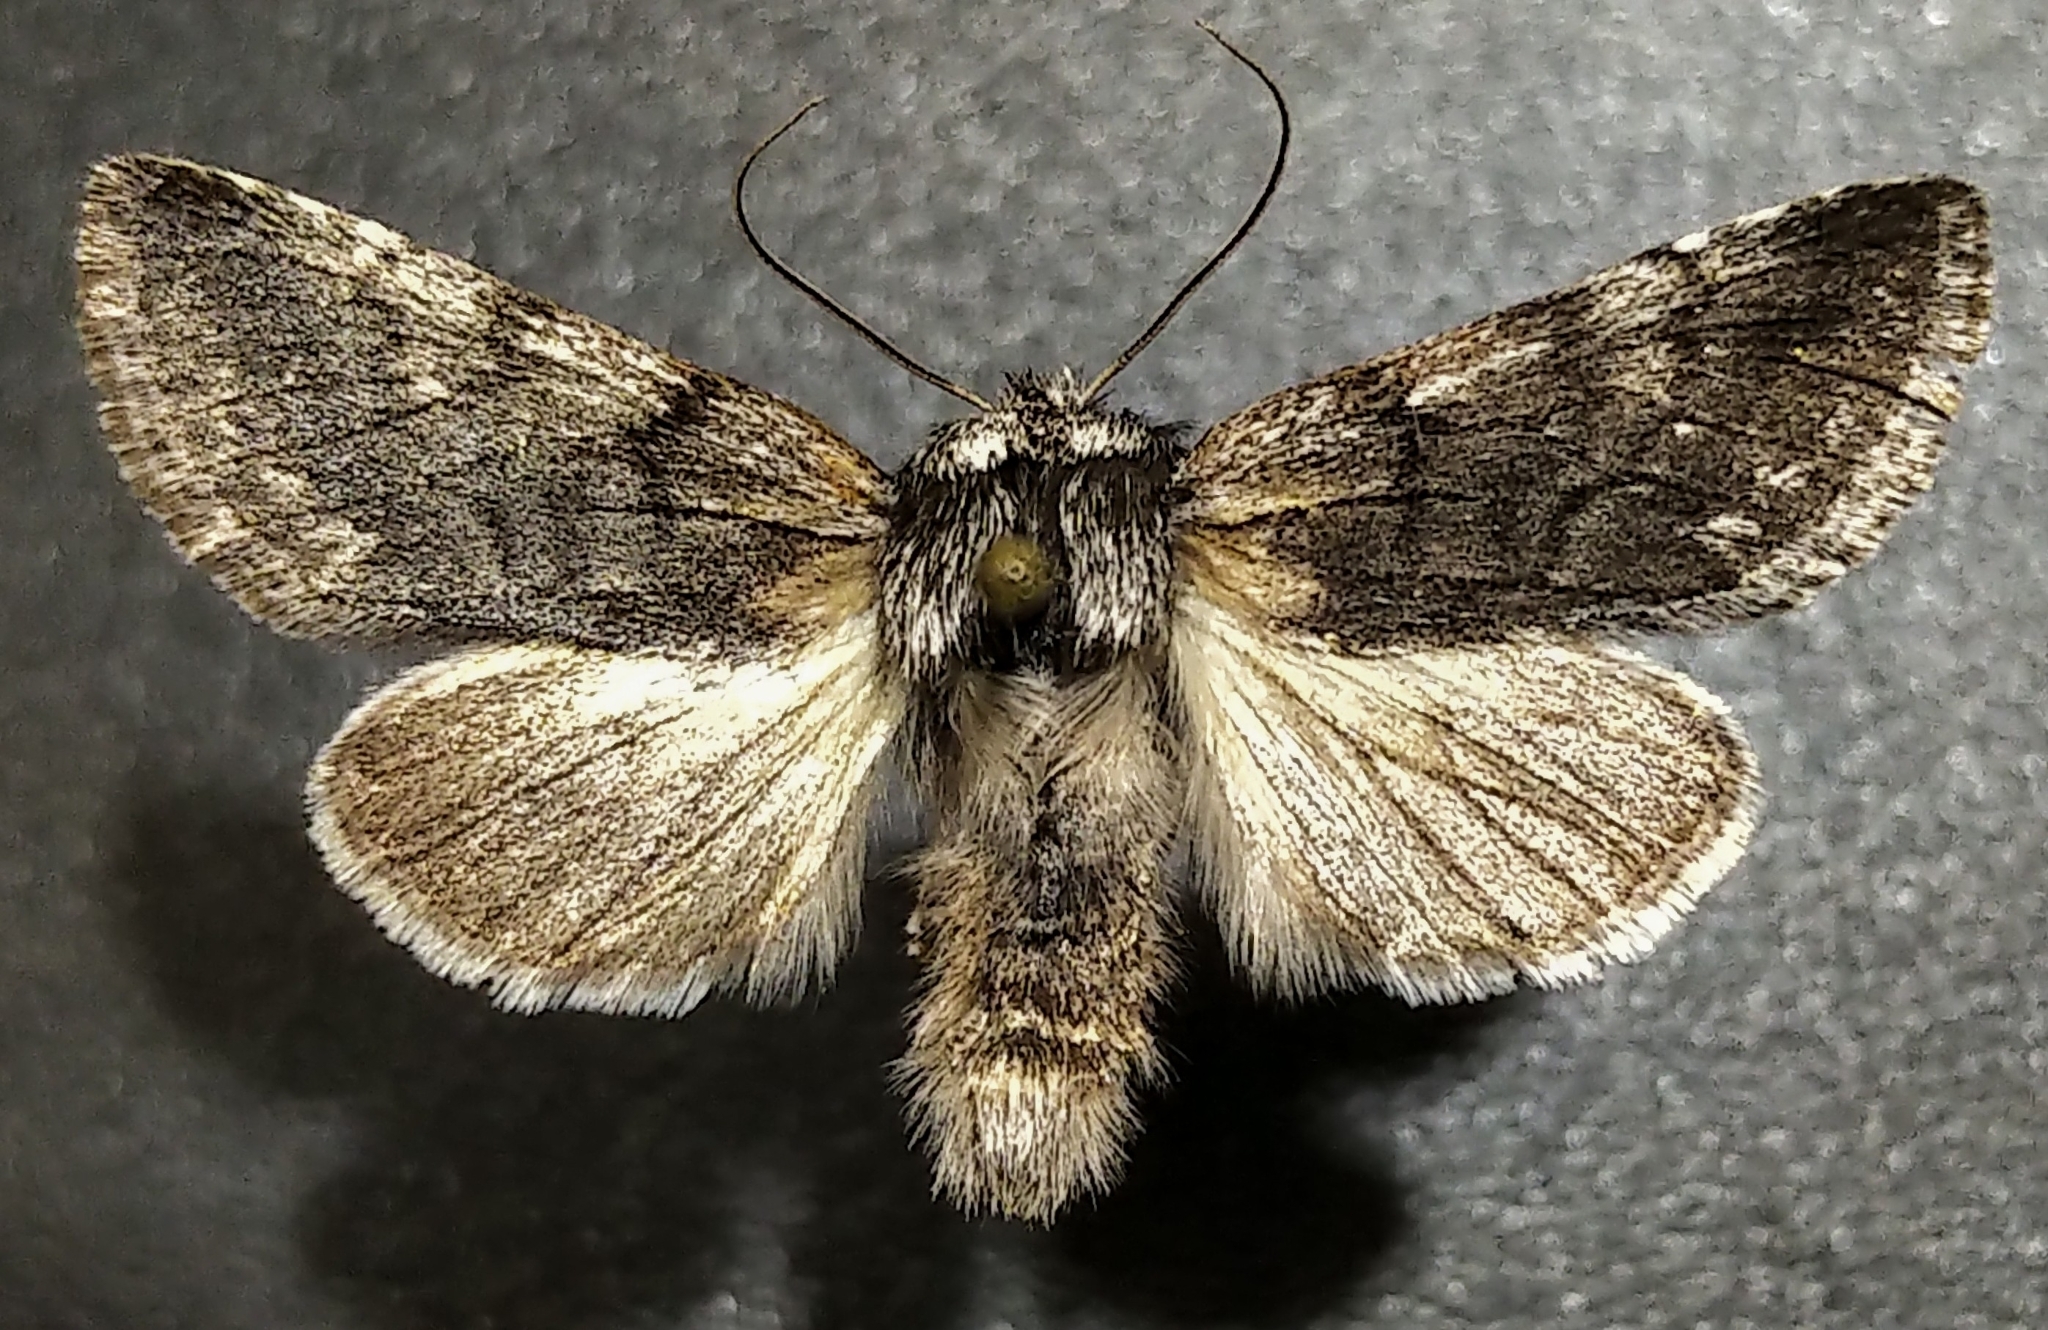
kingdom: Animalia
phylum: Arthropoda
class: Insecta
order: Lepidoptera
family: Noctuidae
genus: Pleromelloida
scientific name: Pleromelloida conserta
